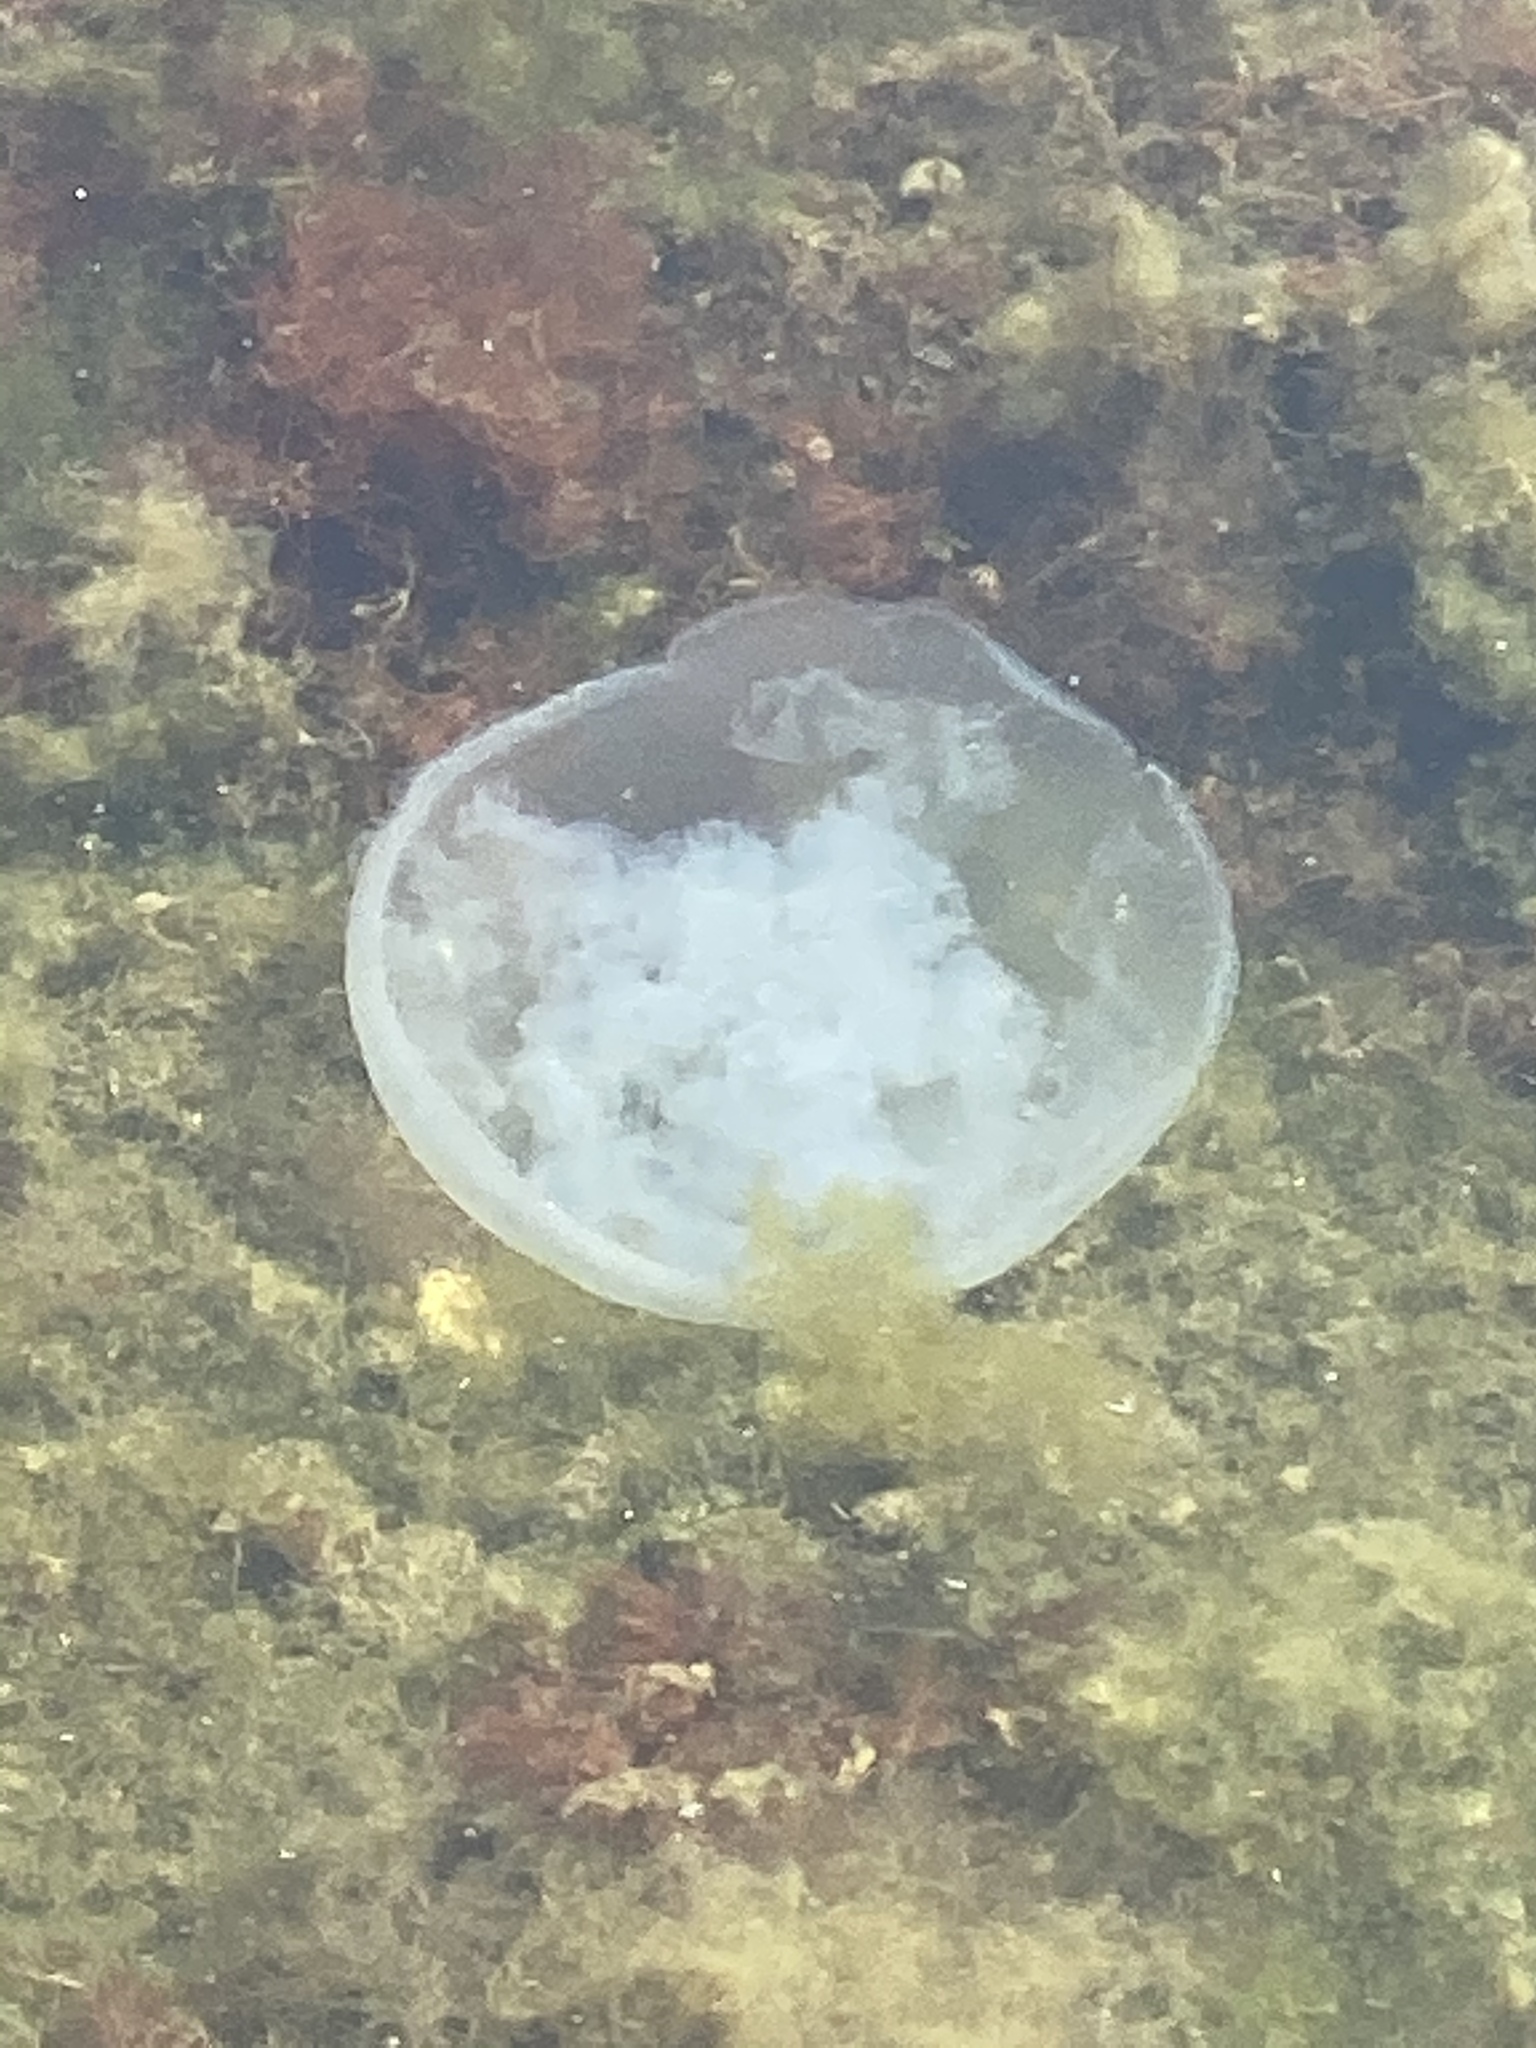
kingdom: Animalia
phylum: Cnidaria
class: Scyphozoa
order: Semaeostomeae
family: Ulmaridae
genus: Aurelia
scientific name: Aurelia coerulea
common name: Moon jellyfish
